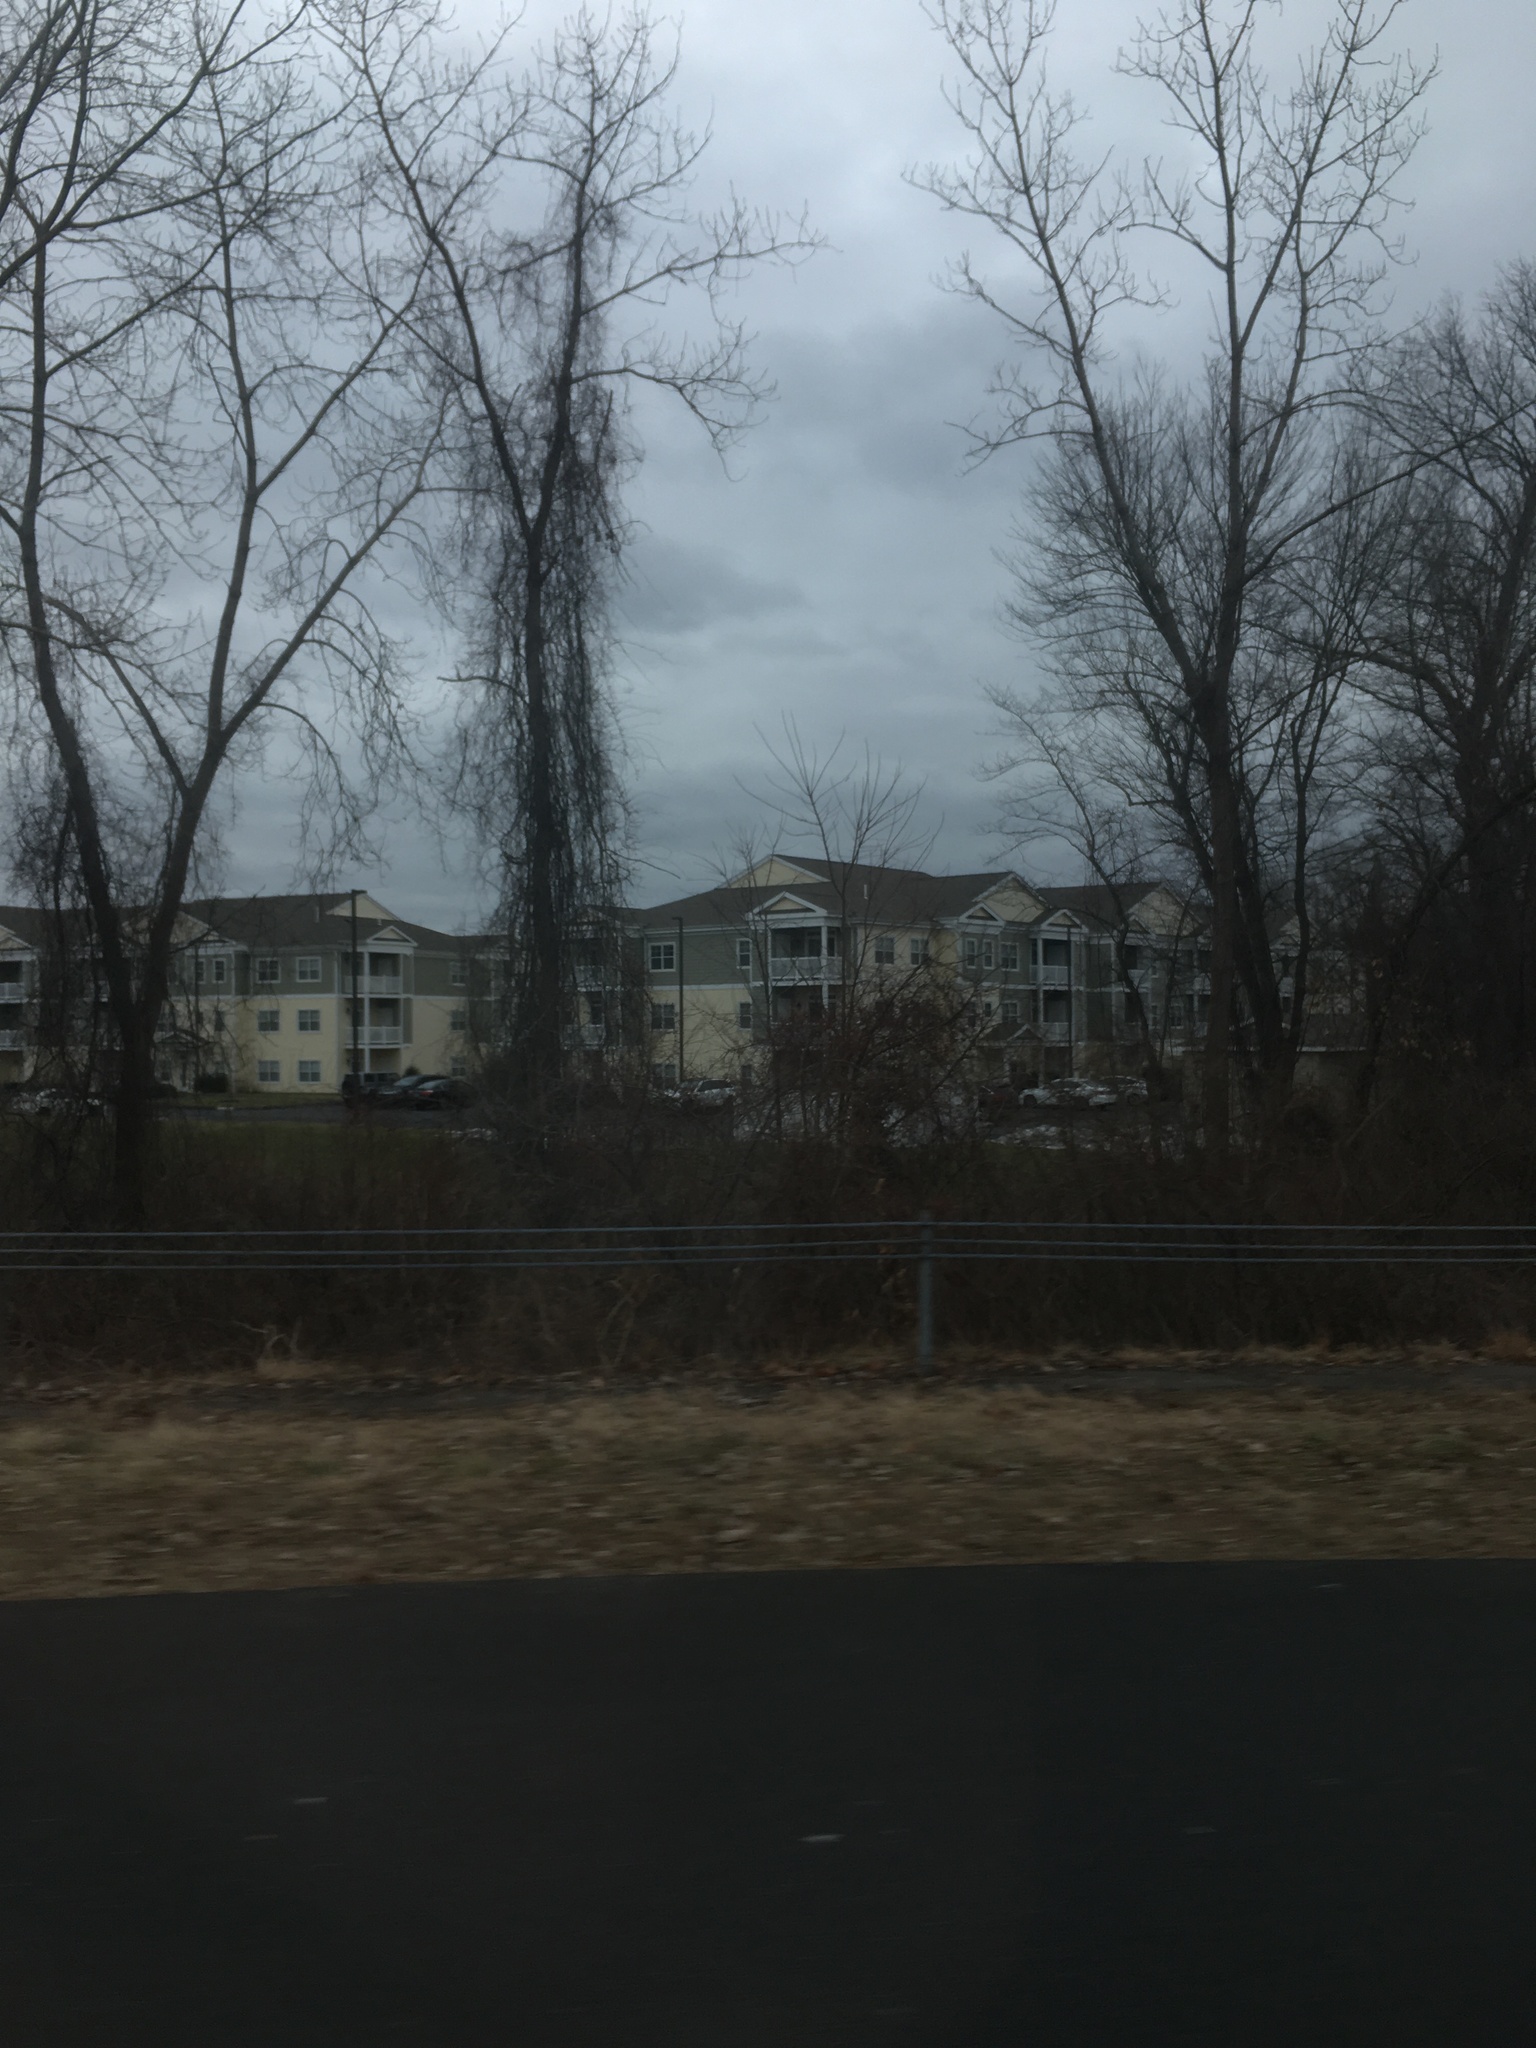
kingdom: Plantae
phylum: Tracheophyta
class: Magnoliopsida
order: Celastrales
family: Celastraceae
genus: Celastrus
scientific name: Celastrus orbiculatus
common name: Oriental bittersweet
